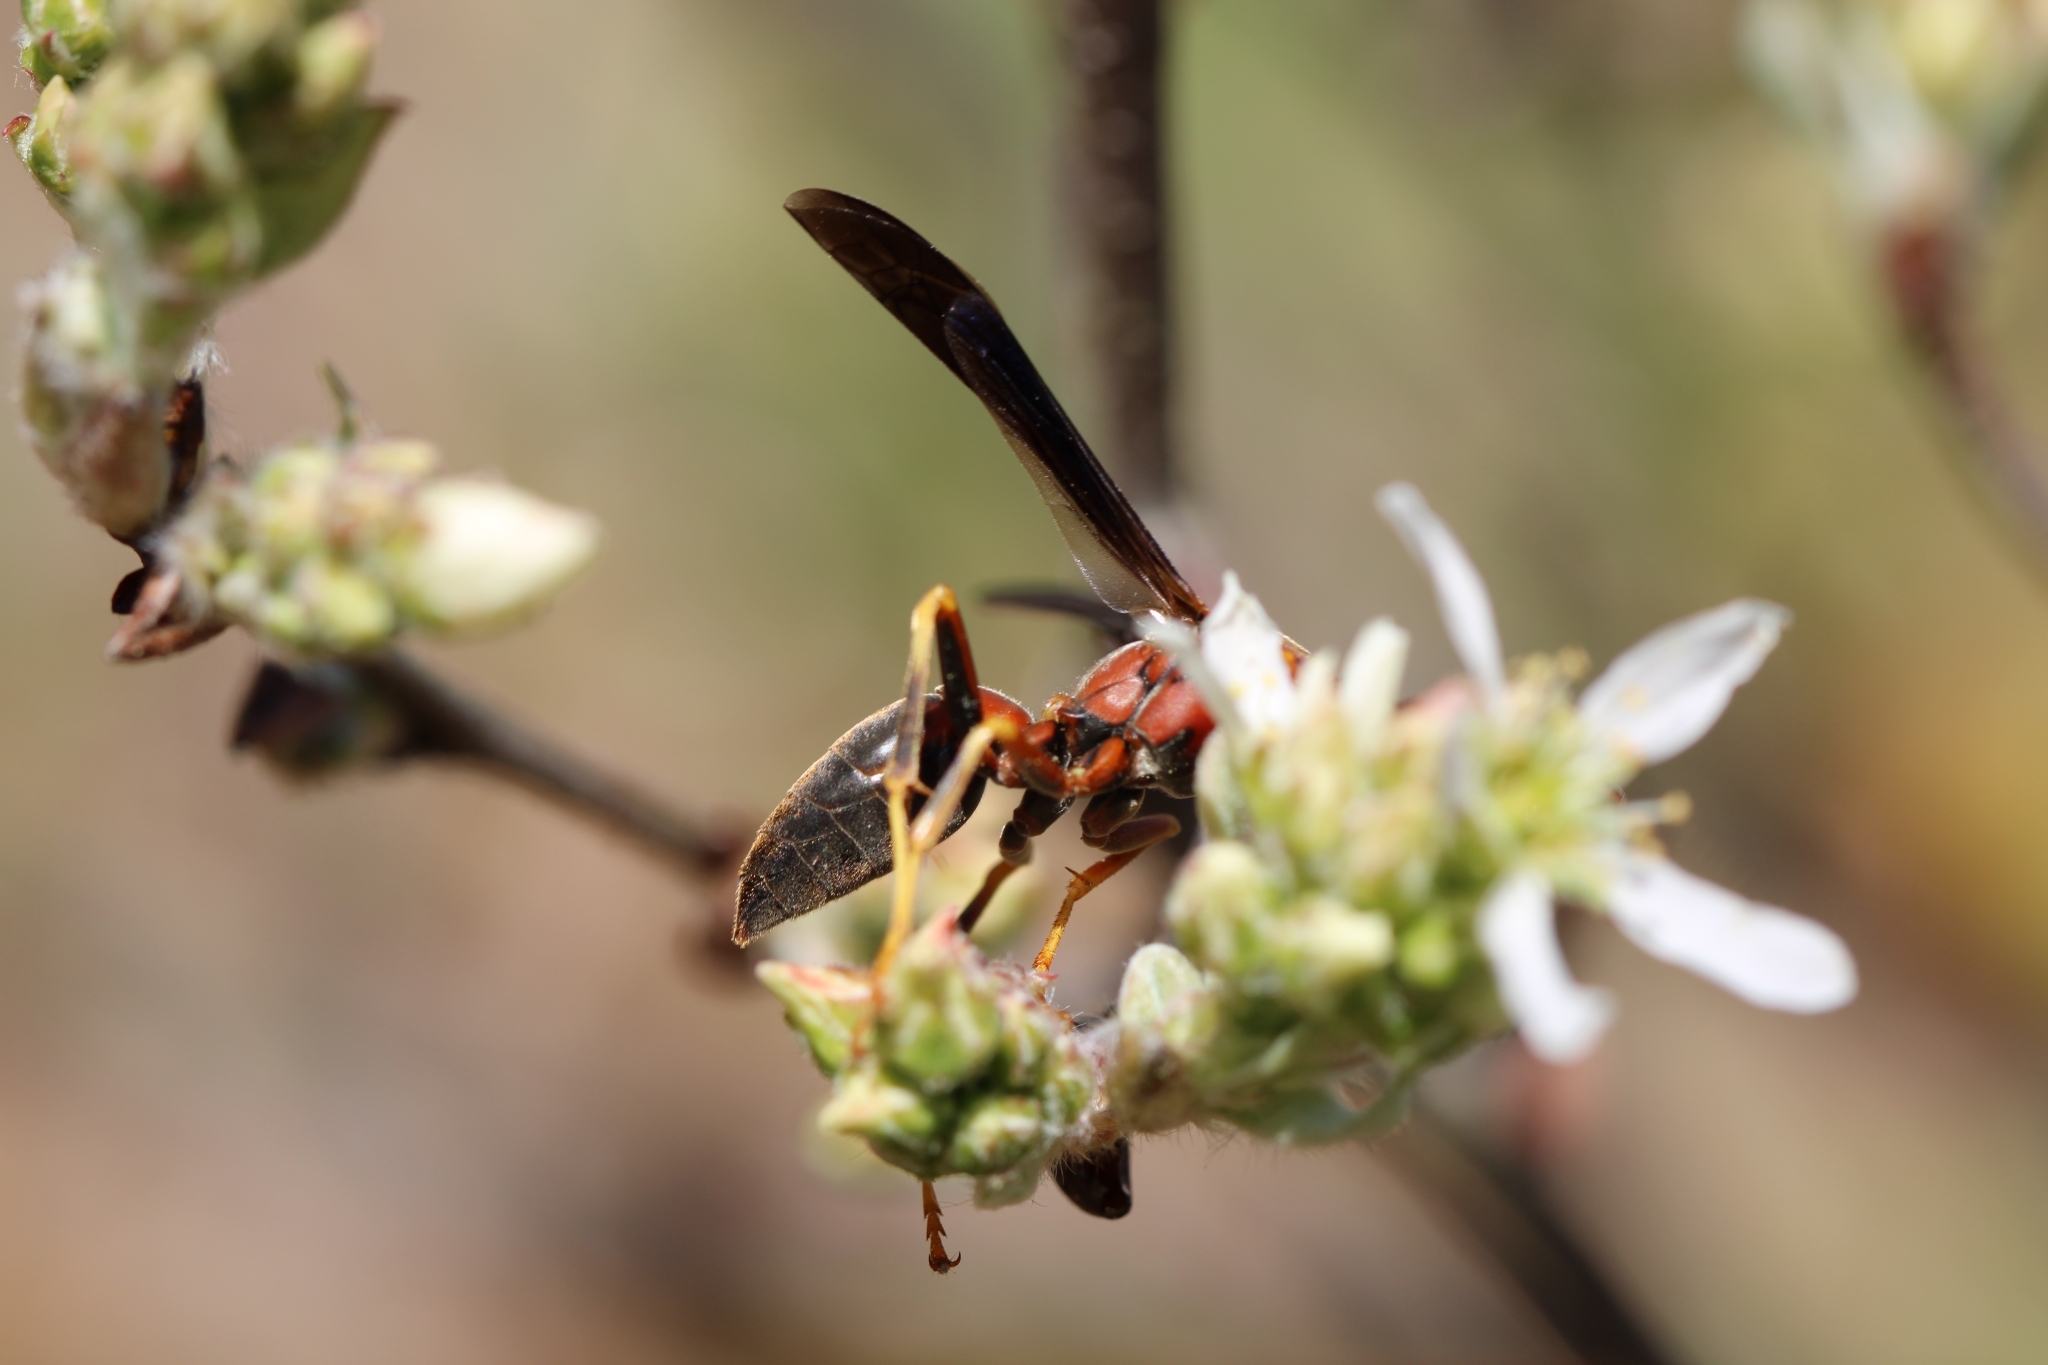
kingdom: Animalia
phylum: Arthropoda
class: Insecta
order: Hymenoptera
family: Eumenidae
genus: Polistes
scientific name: Polistes metricus
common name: Metric paper wasp
